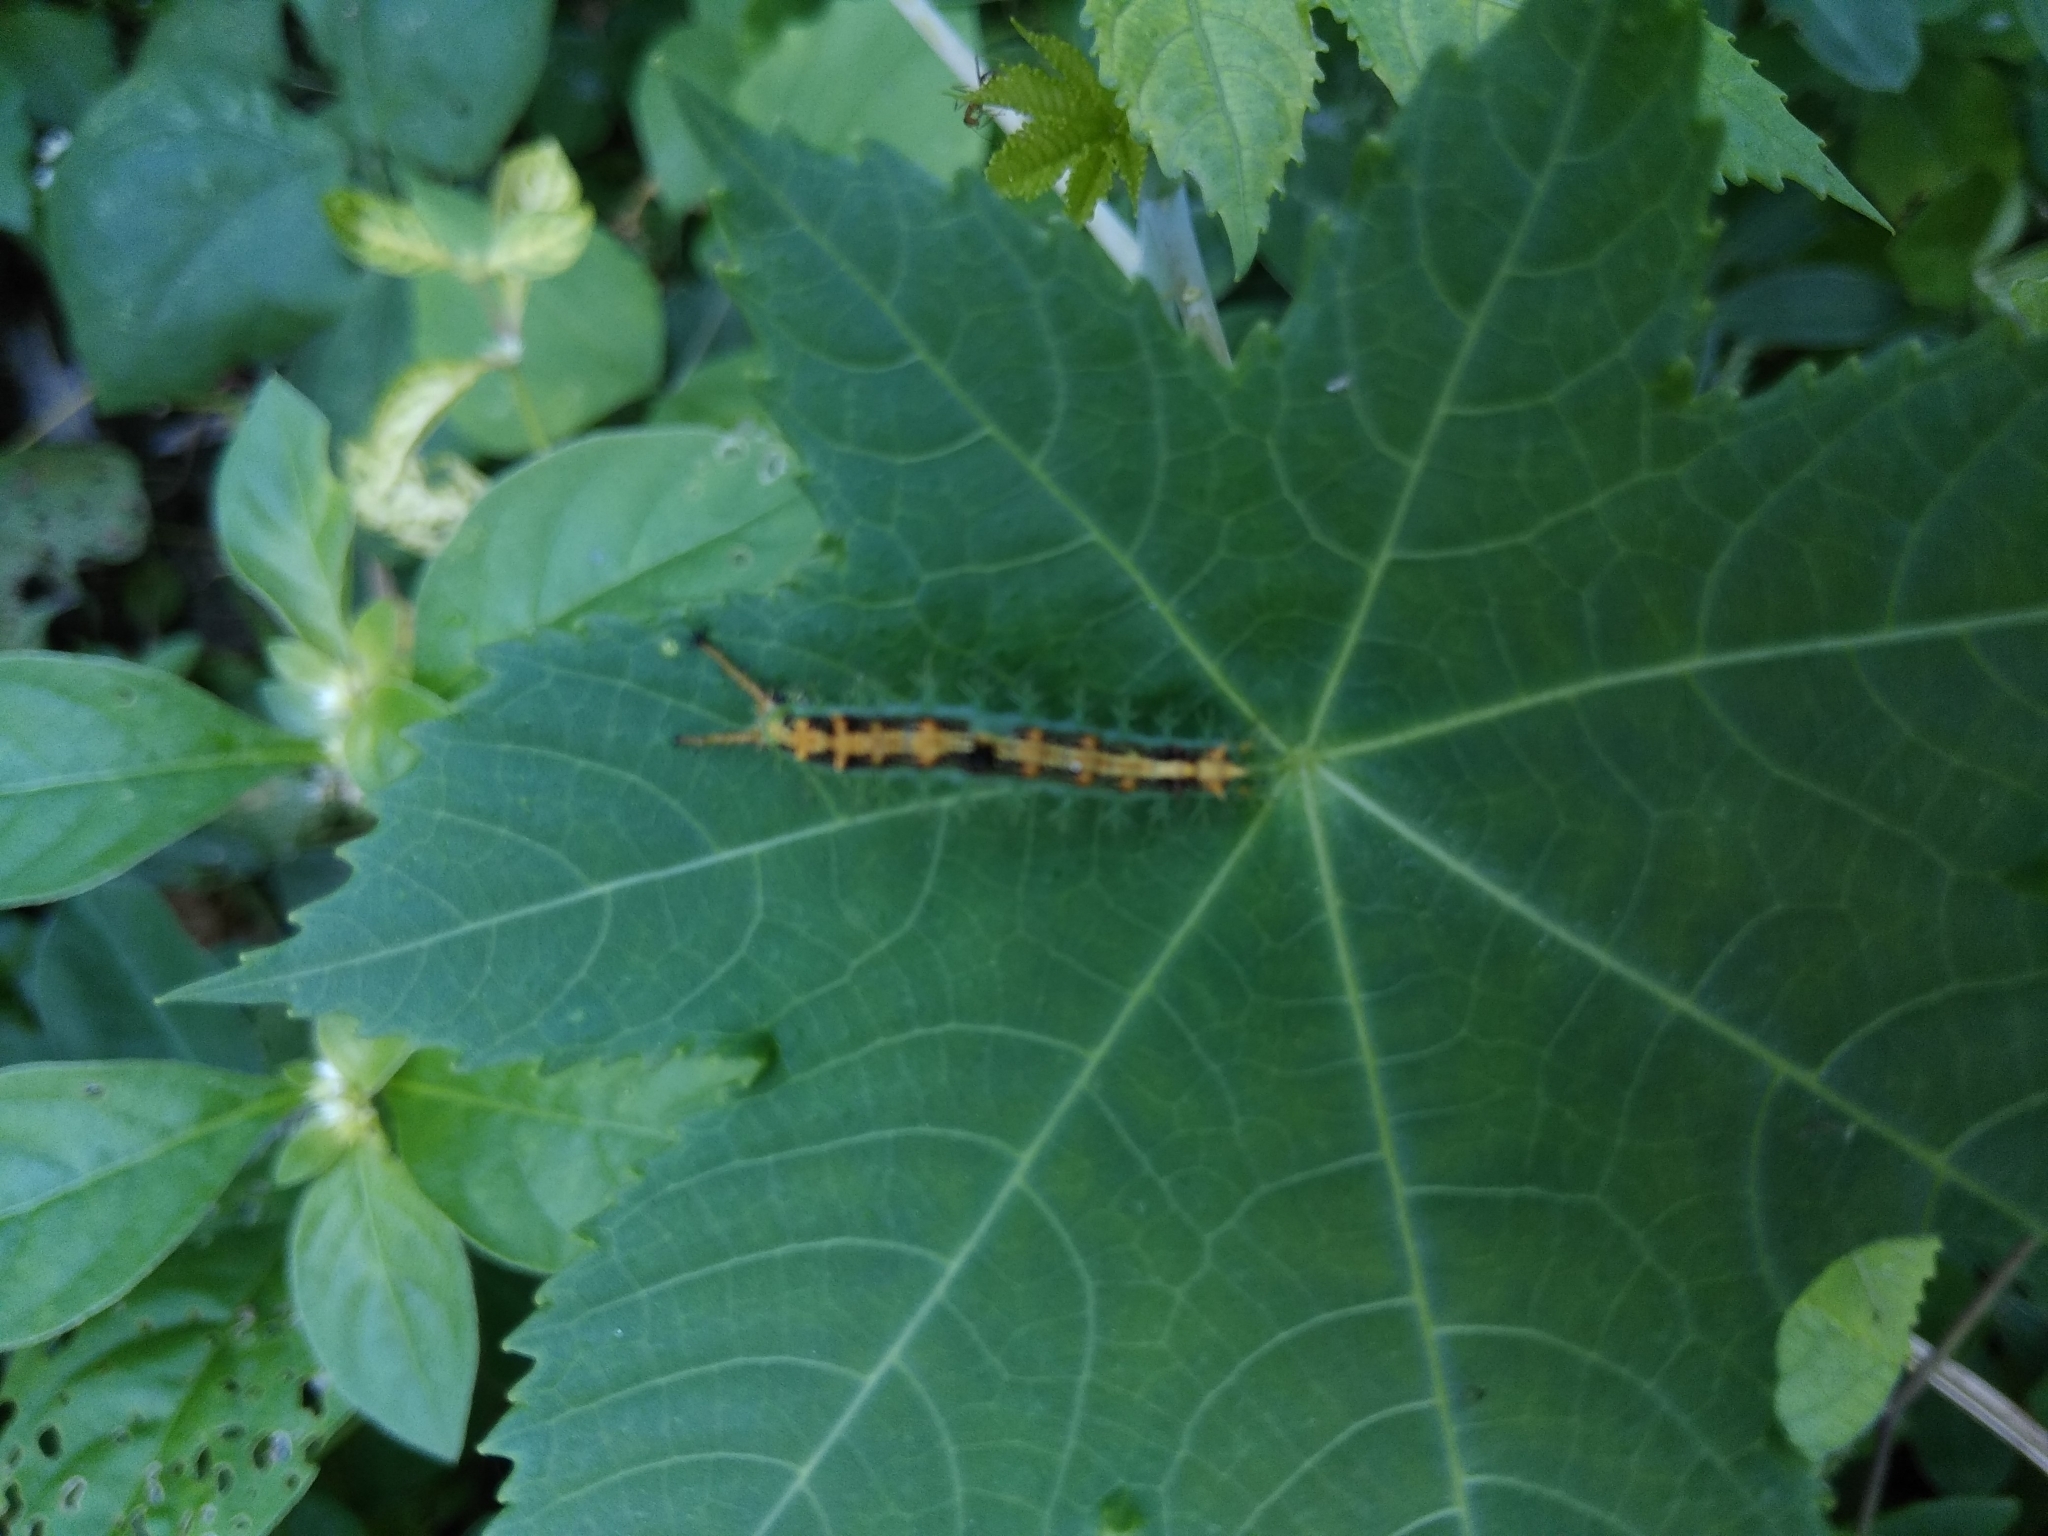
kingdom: Animalia
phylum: Arthropoda
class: Insecta
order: Lepidoptera
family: Nymphalidae
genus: Ariadne
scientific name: Ariadne merione
